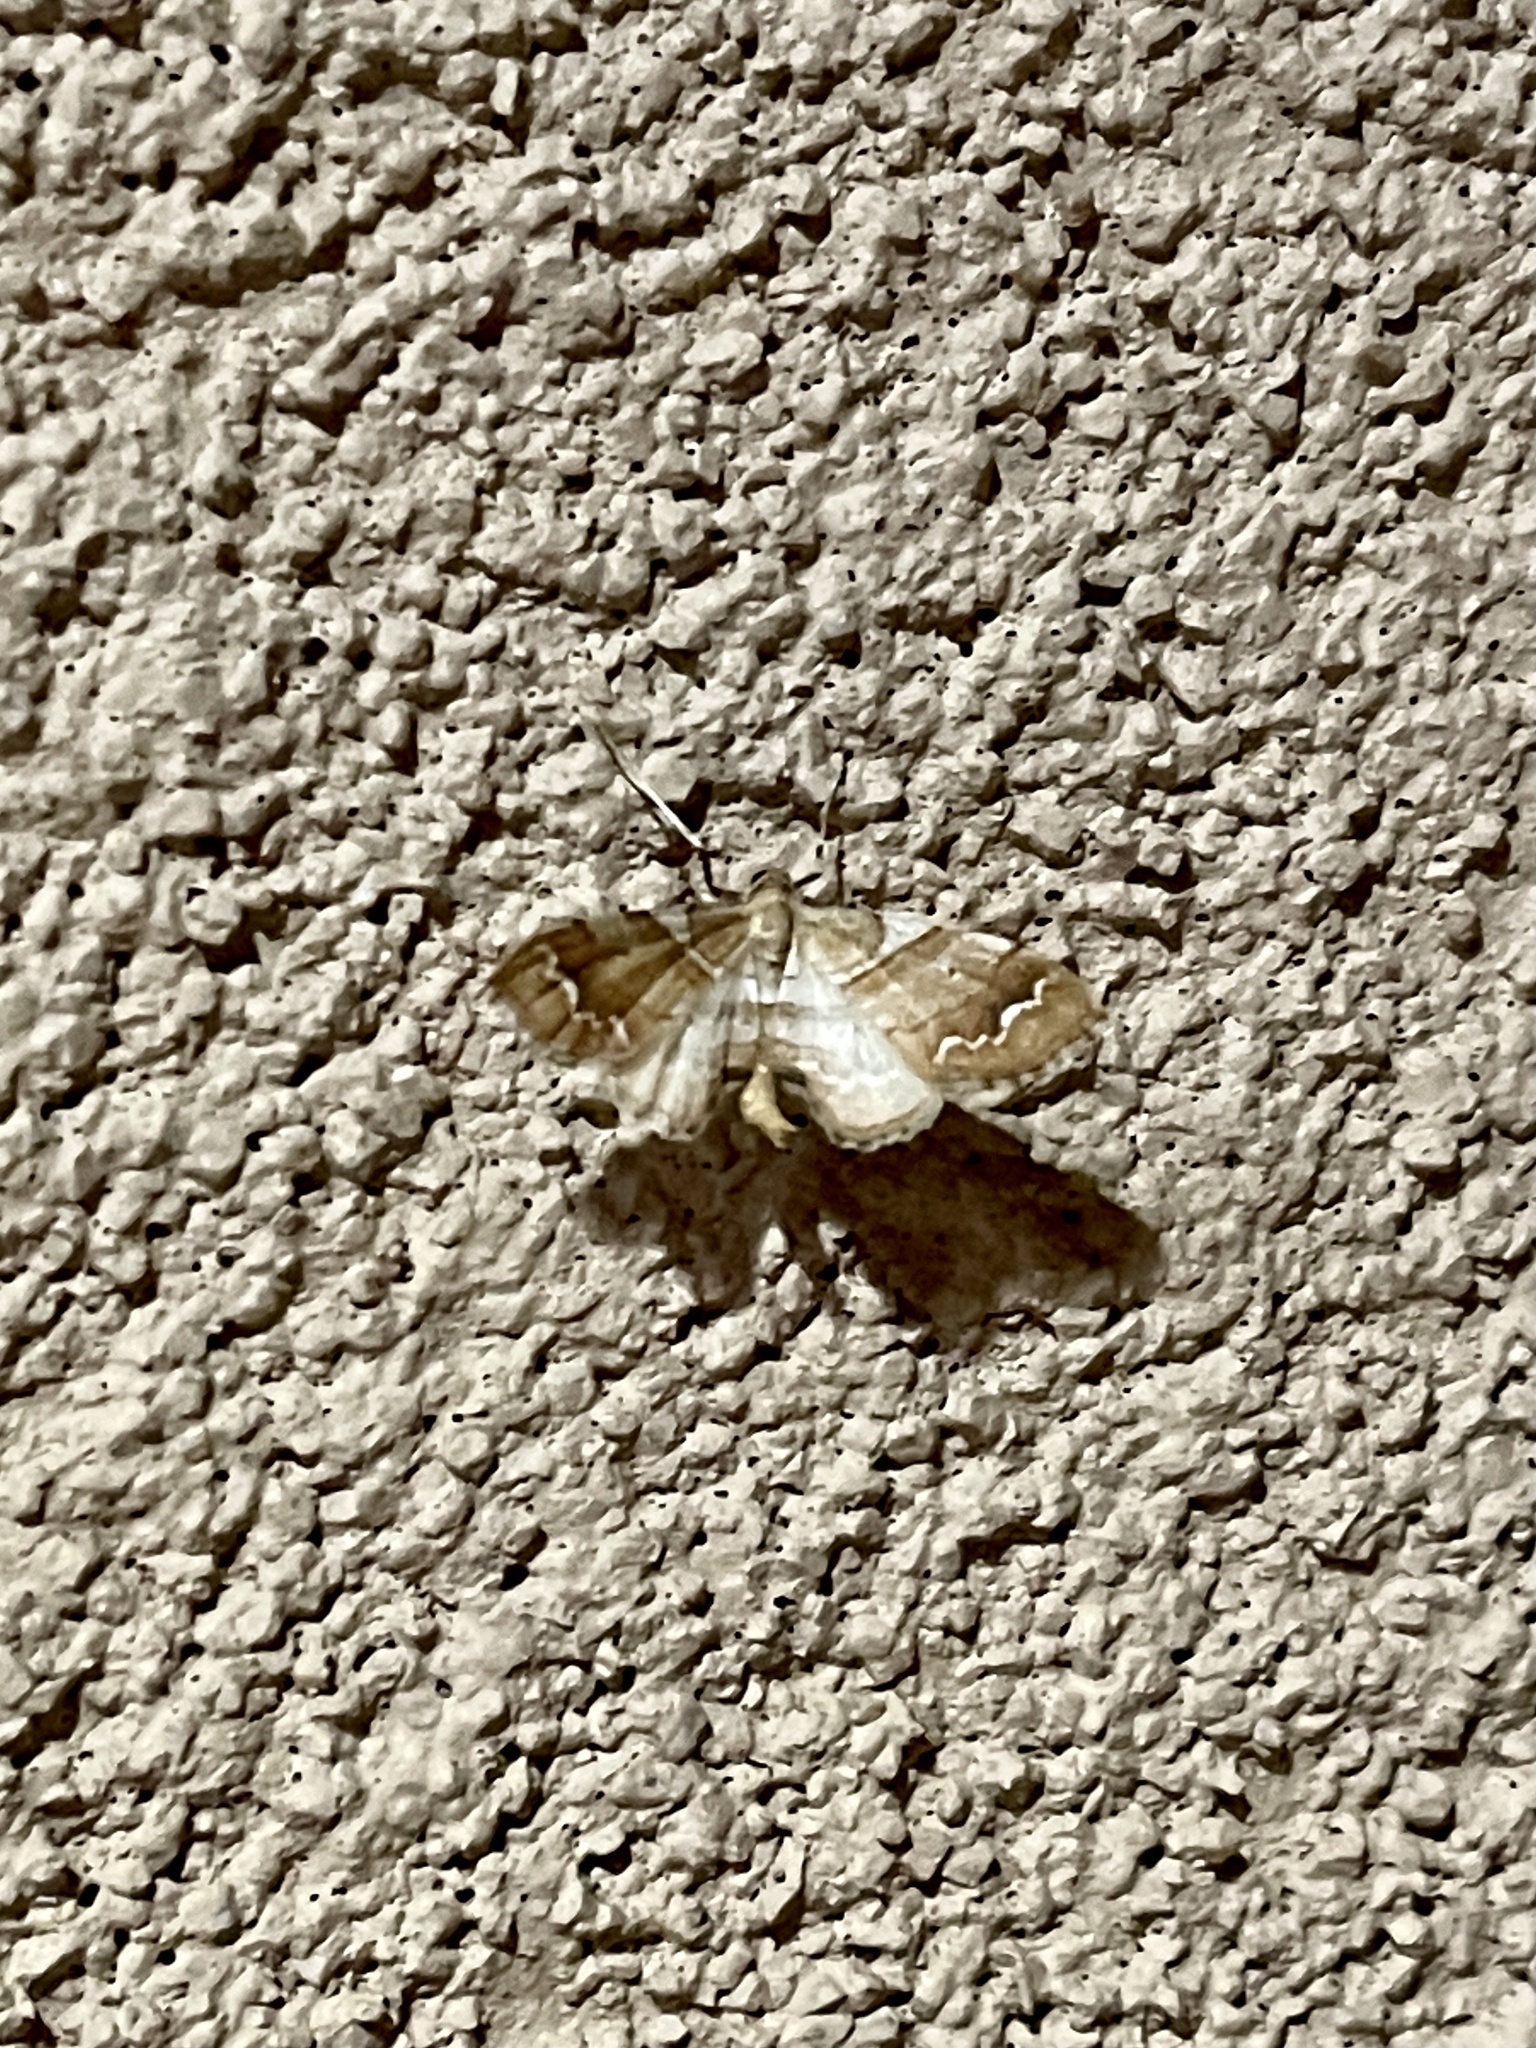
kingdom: Animalia
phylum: Arthropoda
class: Insecta
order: Lepidoptera
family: Geometridae
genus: Odontoptila
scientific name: Odontoptila obrimo
